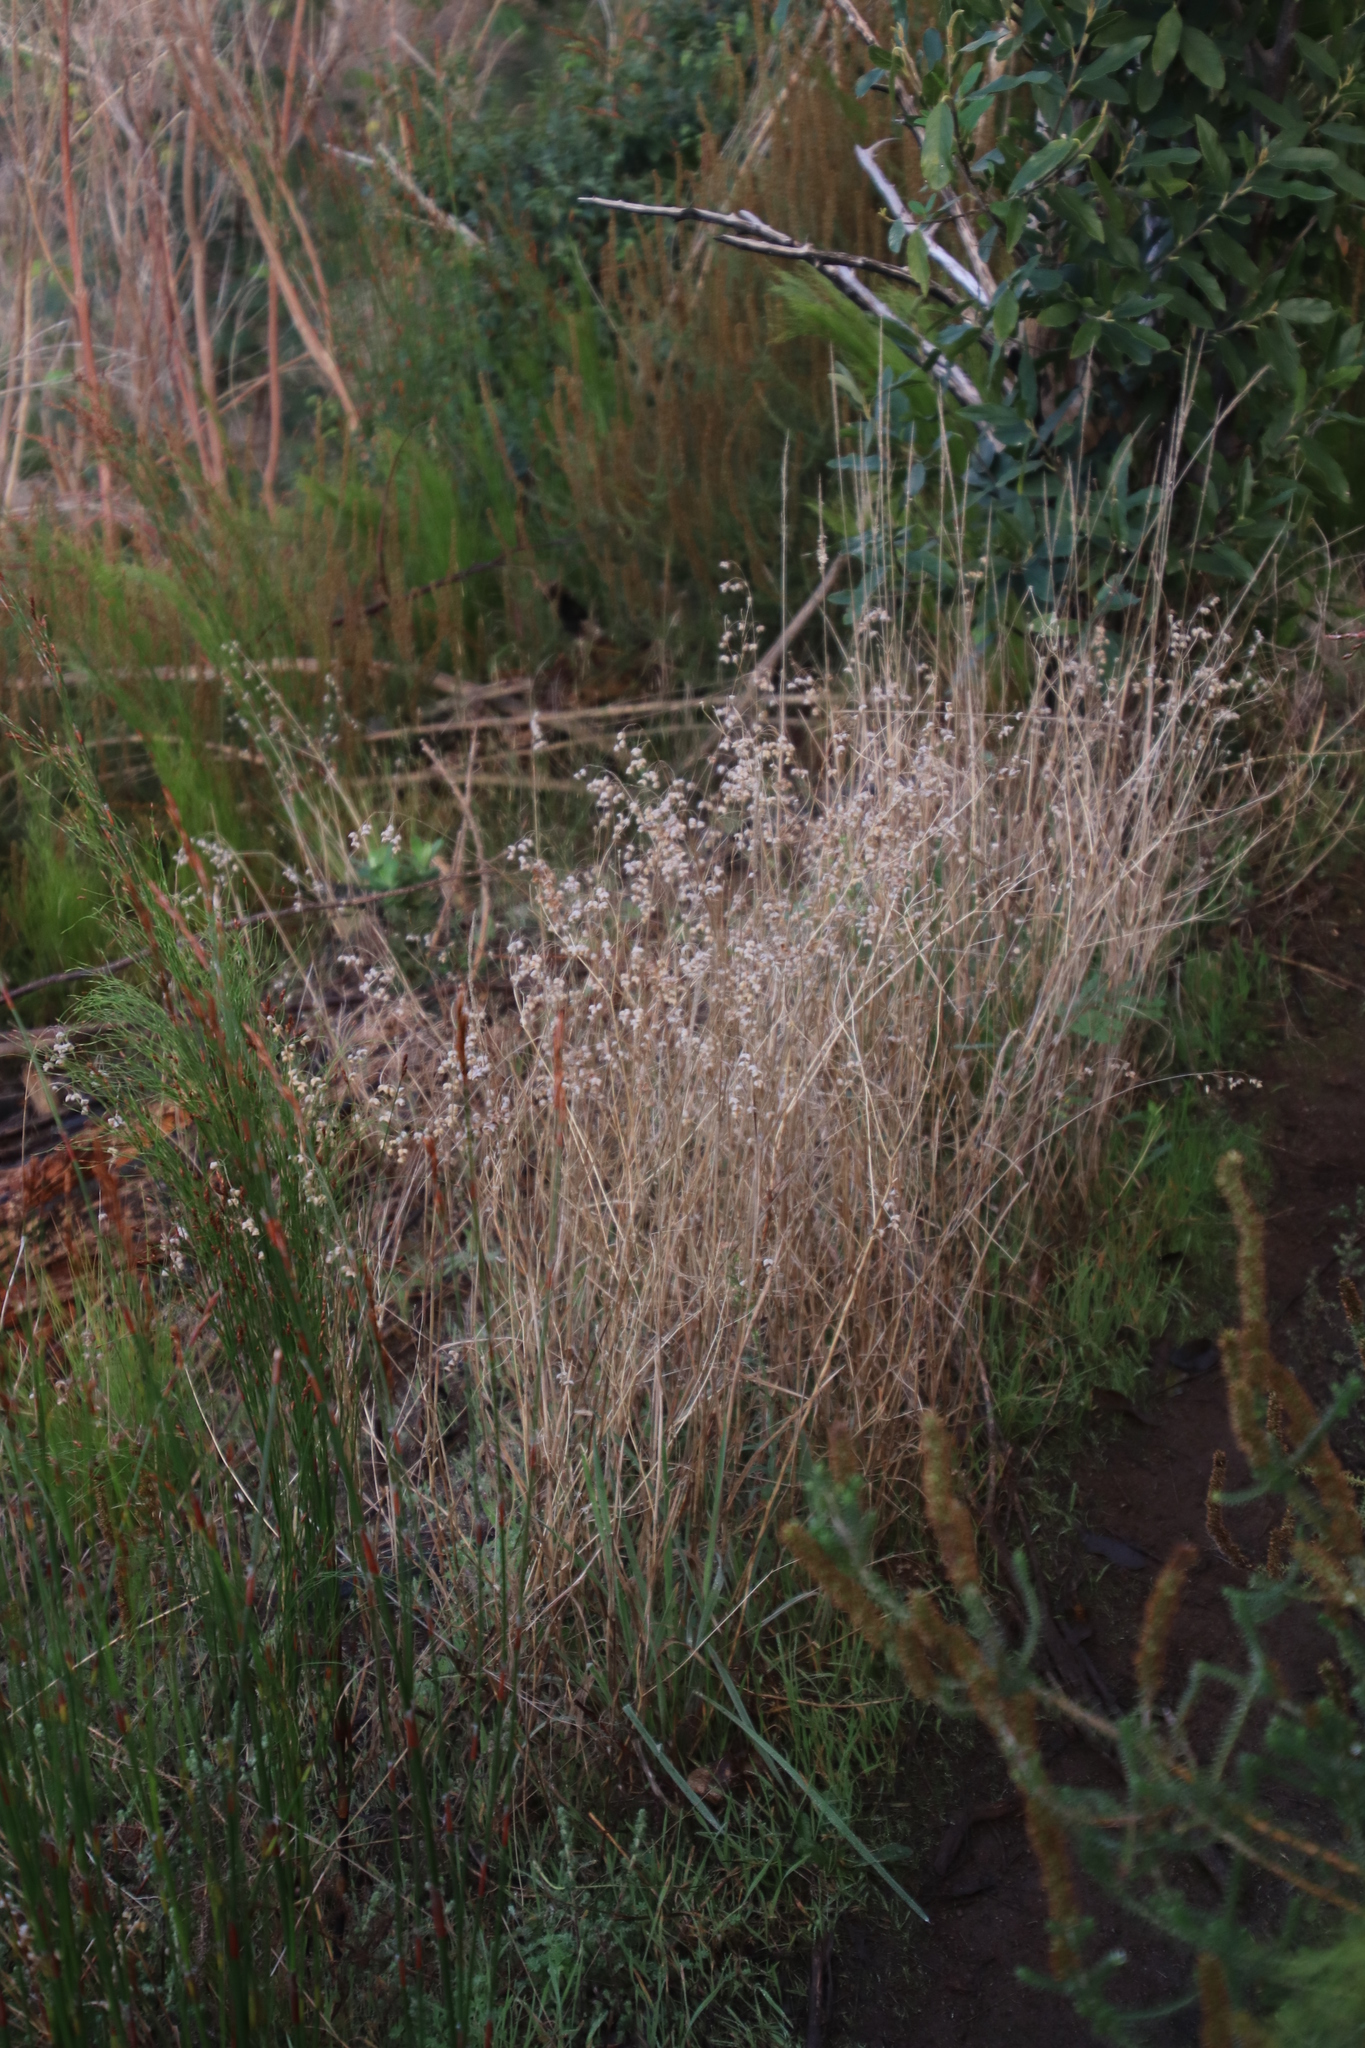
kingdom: Plantae
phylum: Tracheophyta
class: Liliopsida
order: Poales
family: Poaceae
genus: Briza
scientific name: Briza maxima
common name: Big quakinggrass
